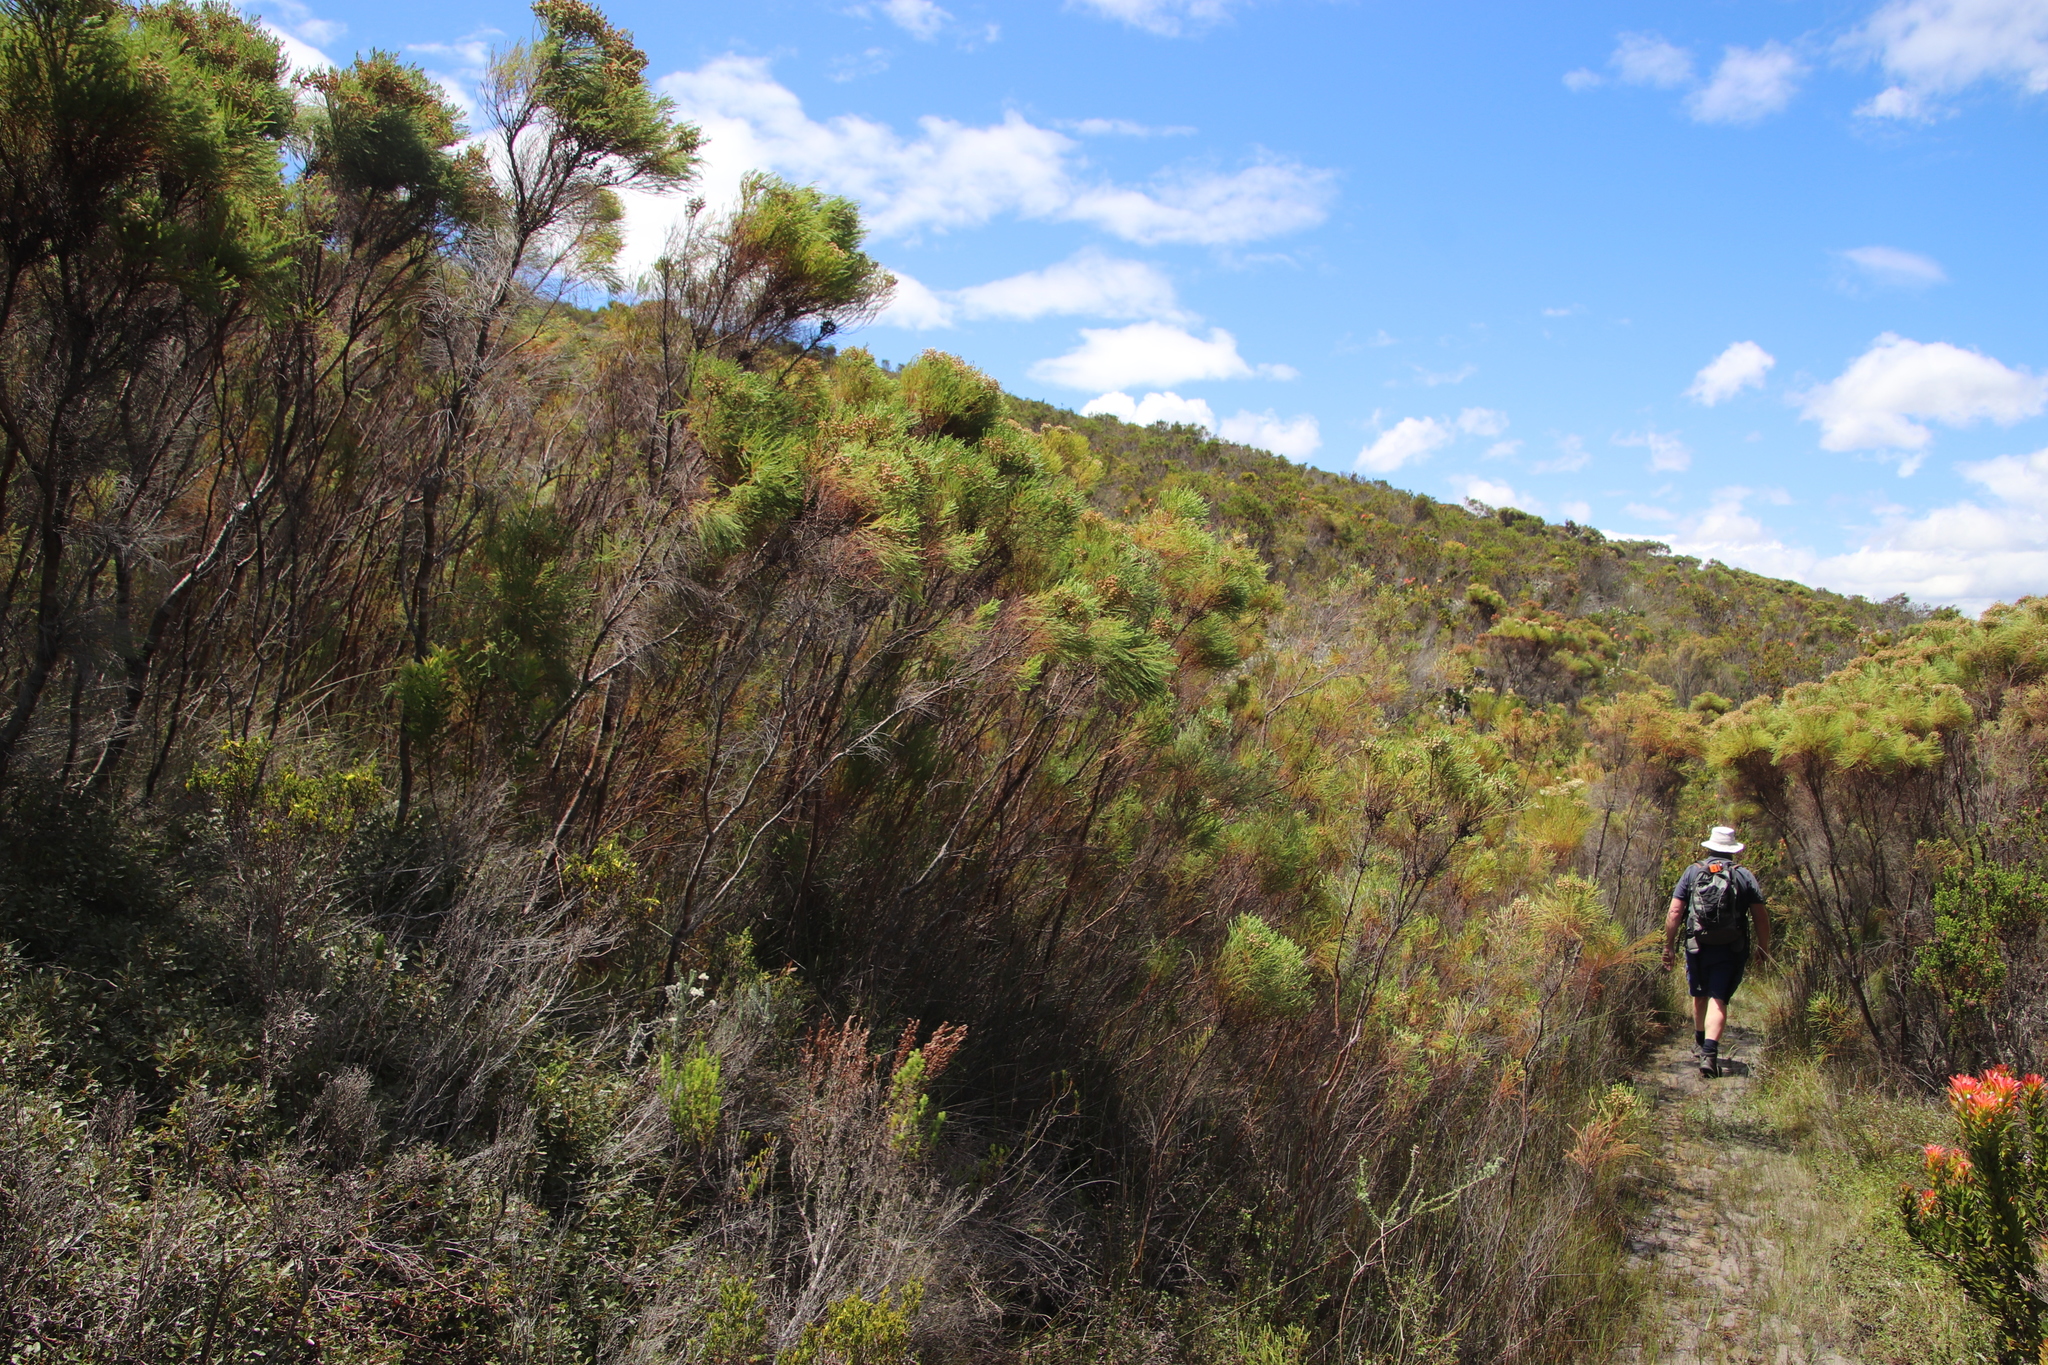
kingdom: Plantae
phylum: Tracheophyta
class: Magnoliopsida
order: Bruniales
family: Bruniaceae
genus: Berzelia
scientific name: Berzelia lanuginosa
